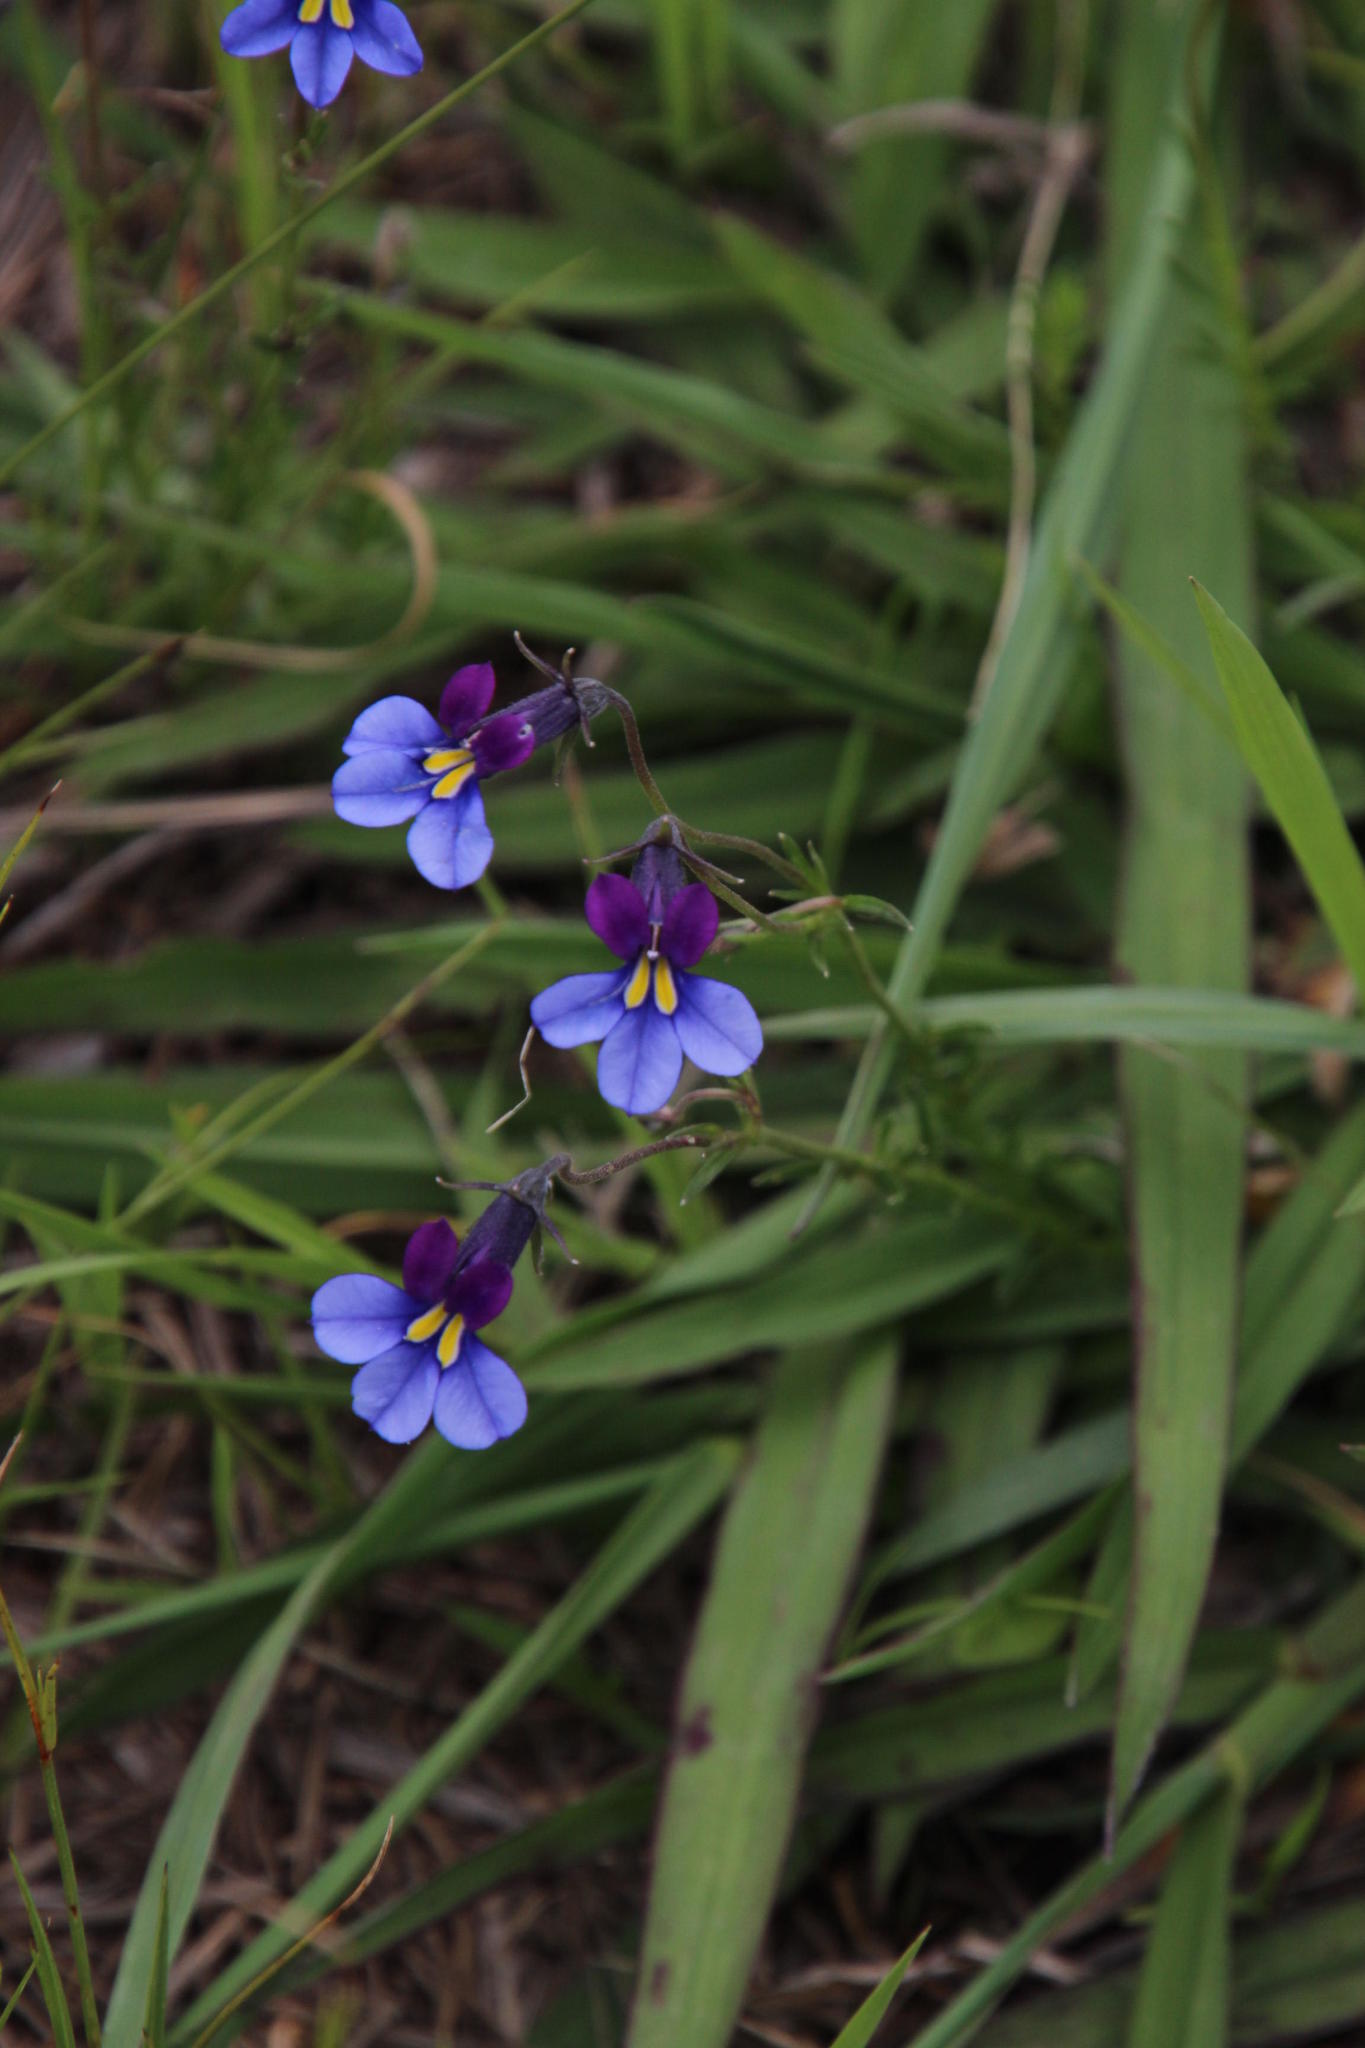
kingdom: Plantae
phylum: Tracheophyta
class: Magnoliopsida
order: Asterales
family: Campanulaceae
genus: Monopsis
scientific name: Monopsis decipiens
